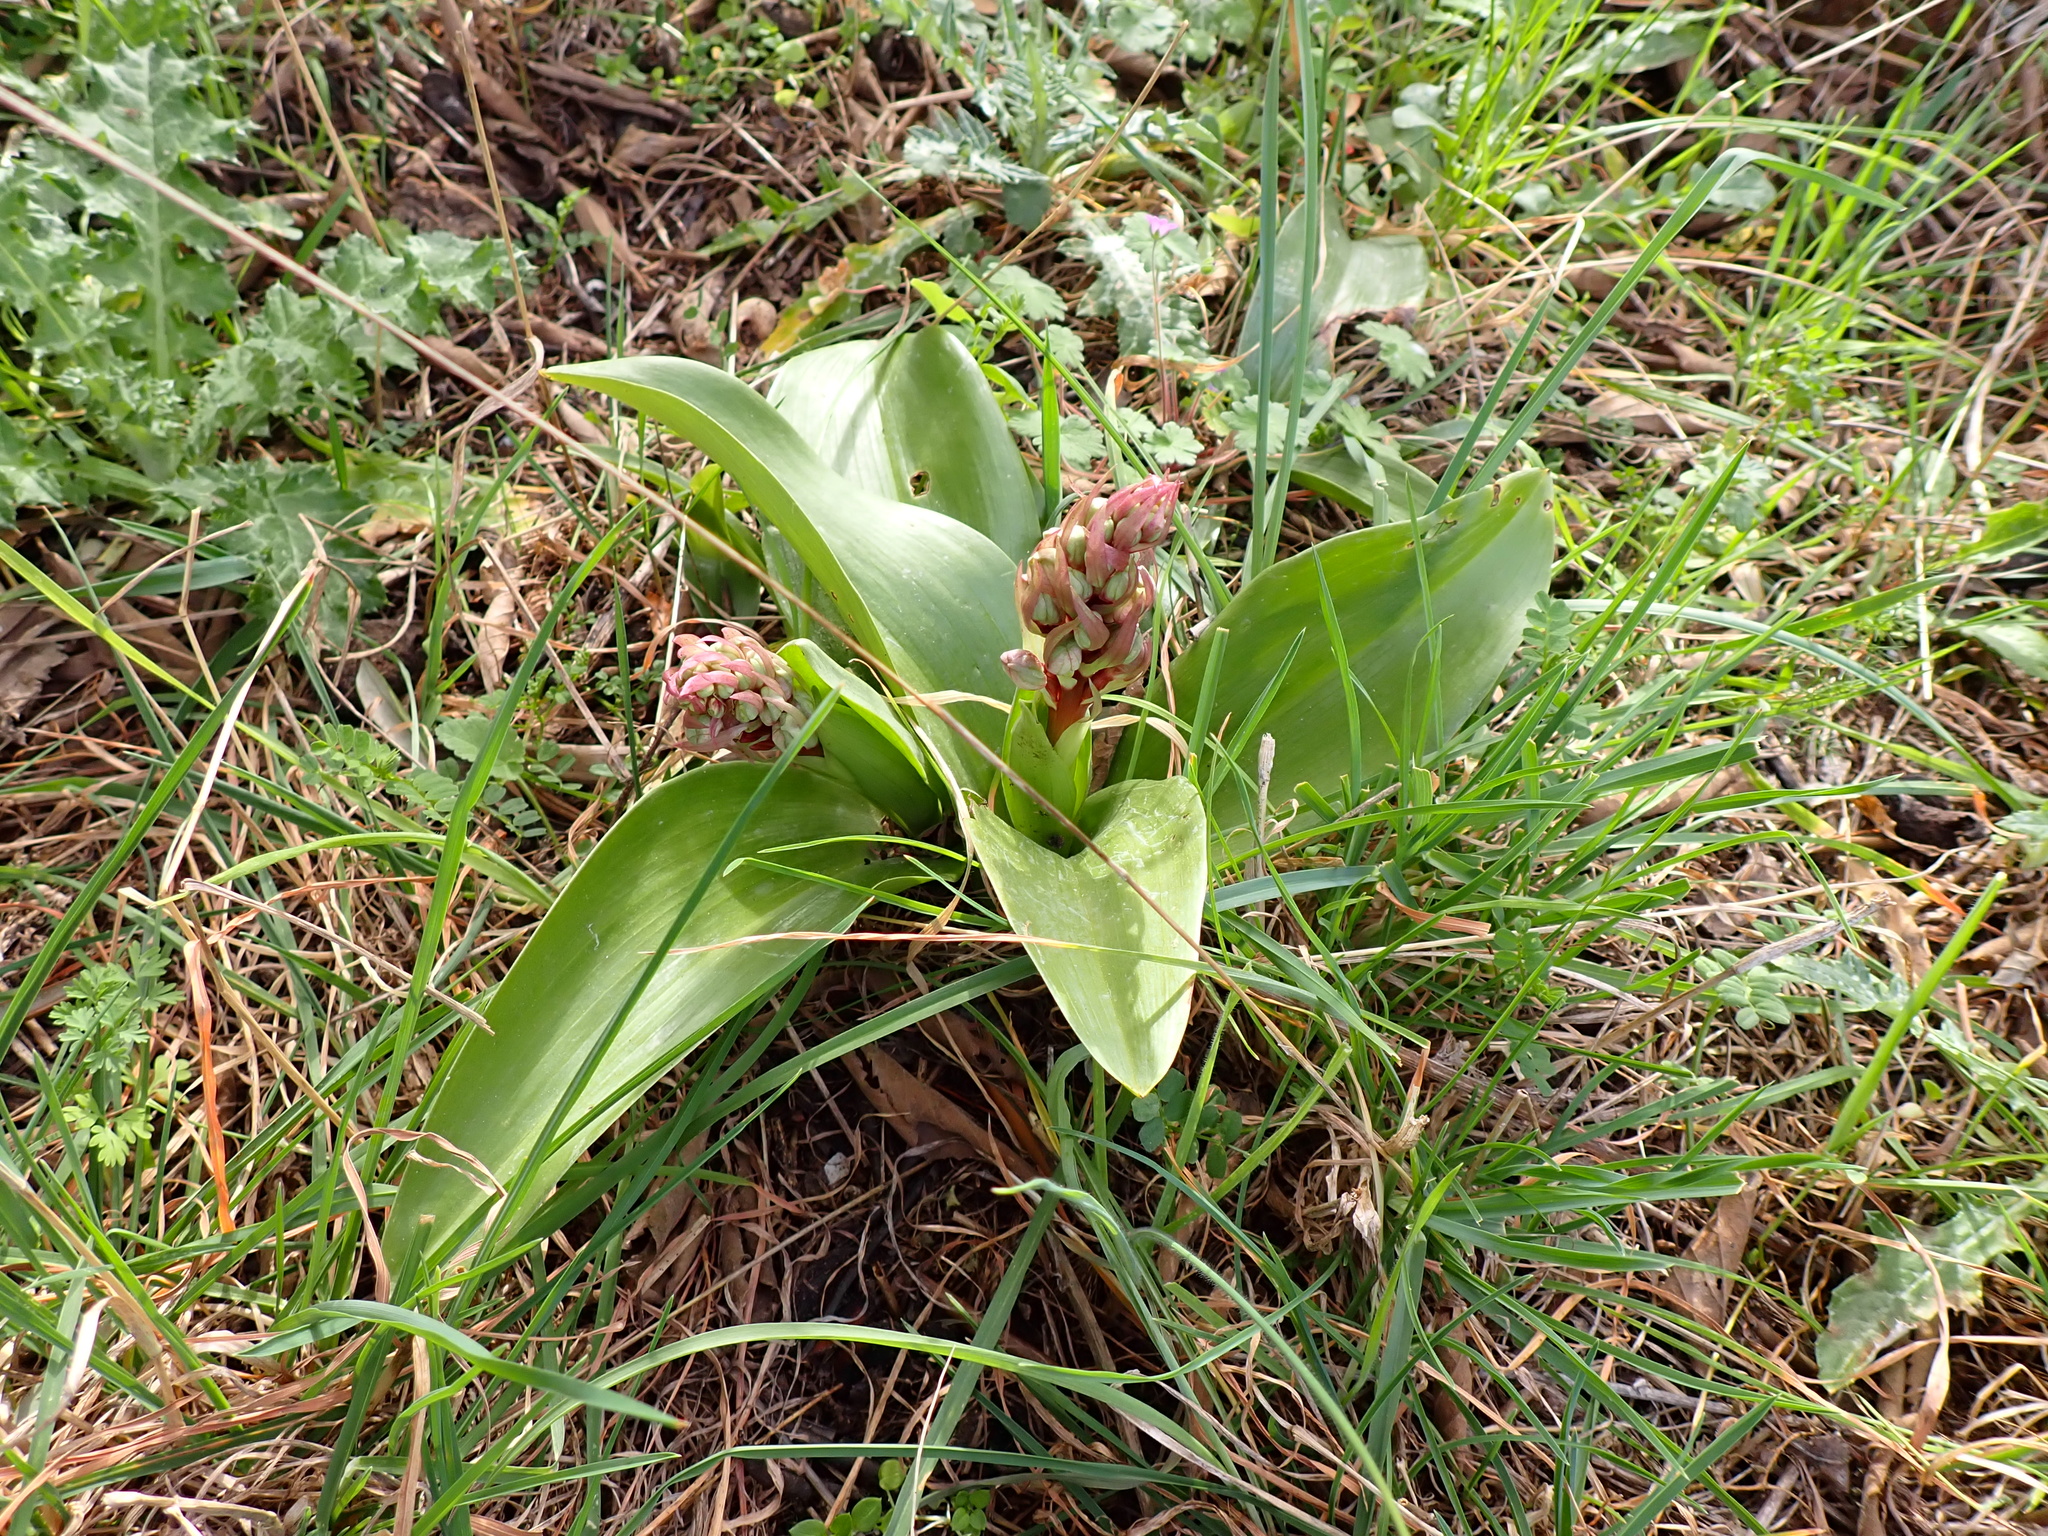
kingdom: Plantae
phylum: Tracheophyta
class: Liliopsida
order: Asparagales
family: Orchidaceae
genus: Himantoglossum
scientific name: Himantoglossum robertianum
